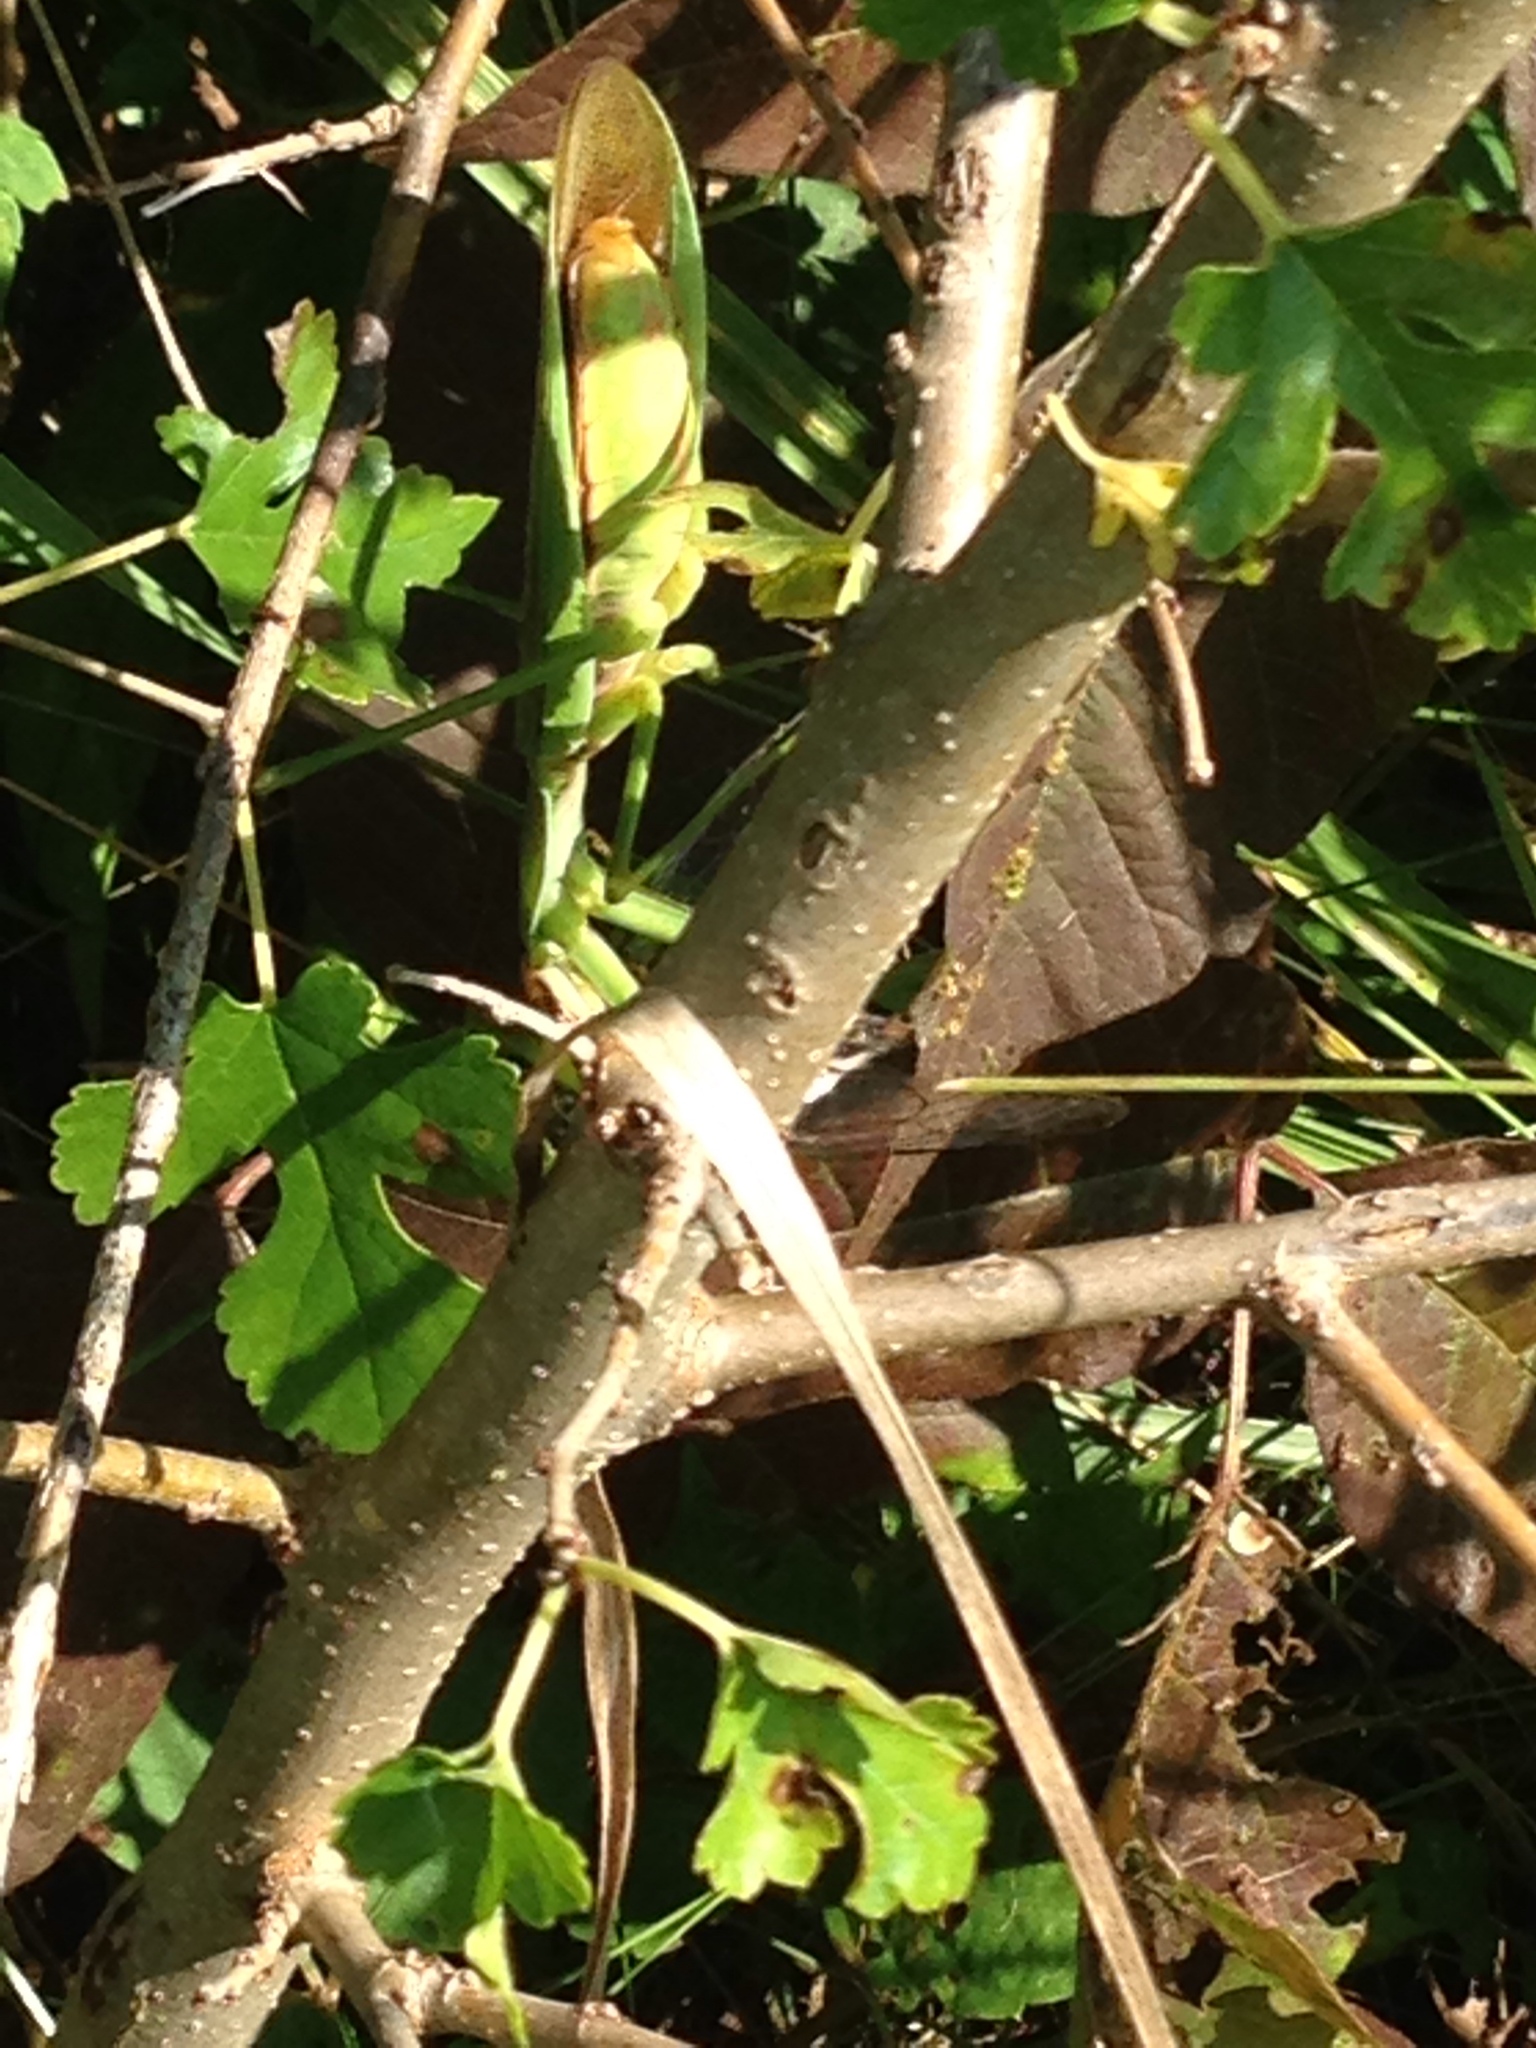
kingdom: Animalia
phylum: Arthropoda
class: Insecta
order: Mantodea
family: Mantidae
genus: Tenodera
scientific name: Tenodera sinensis
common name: Chinese mantis
